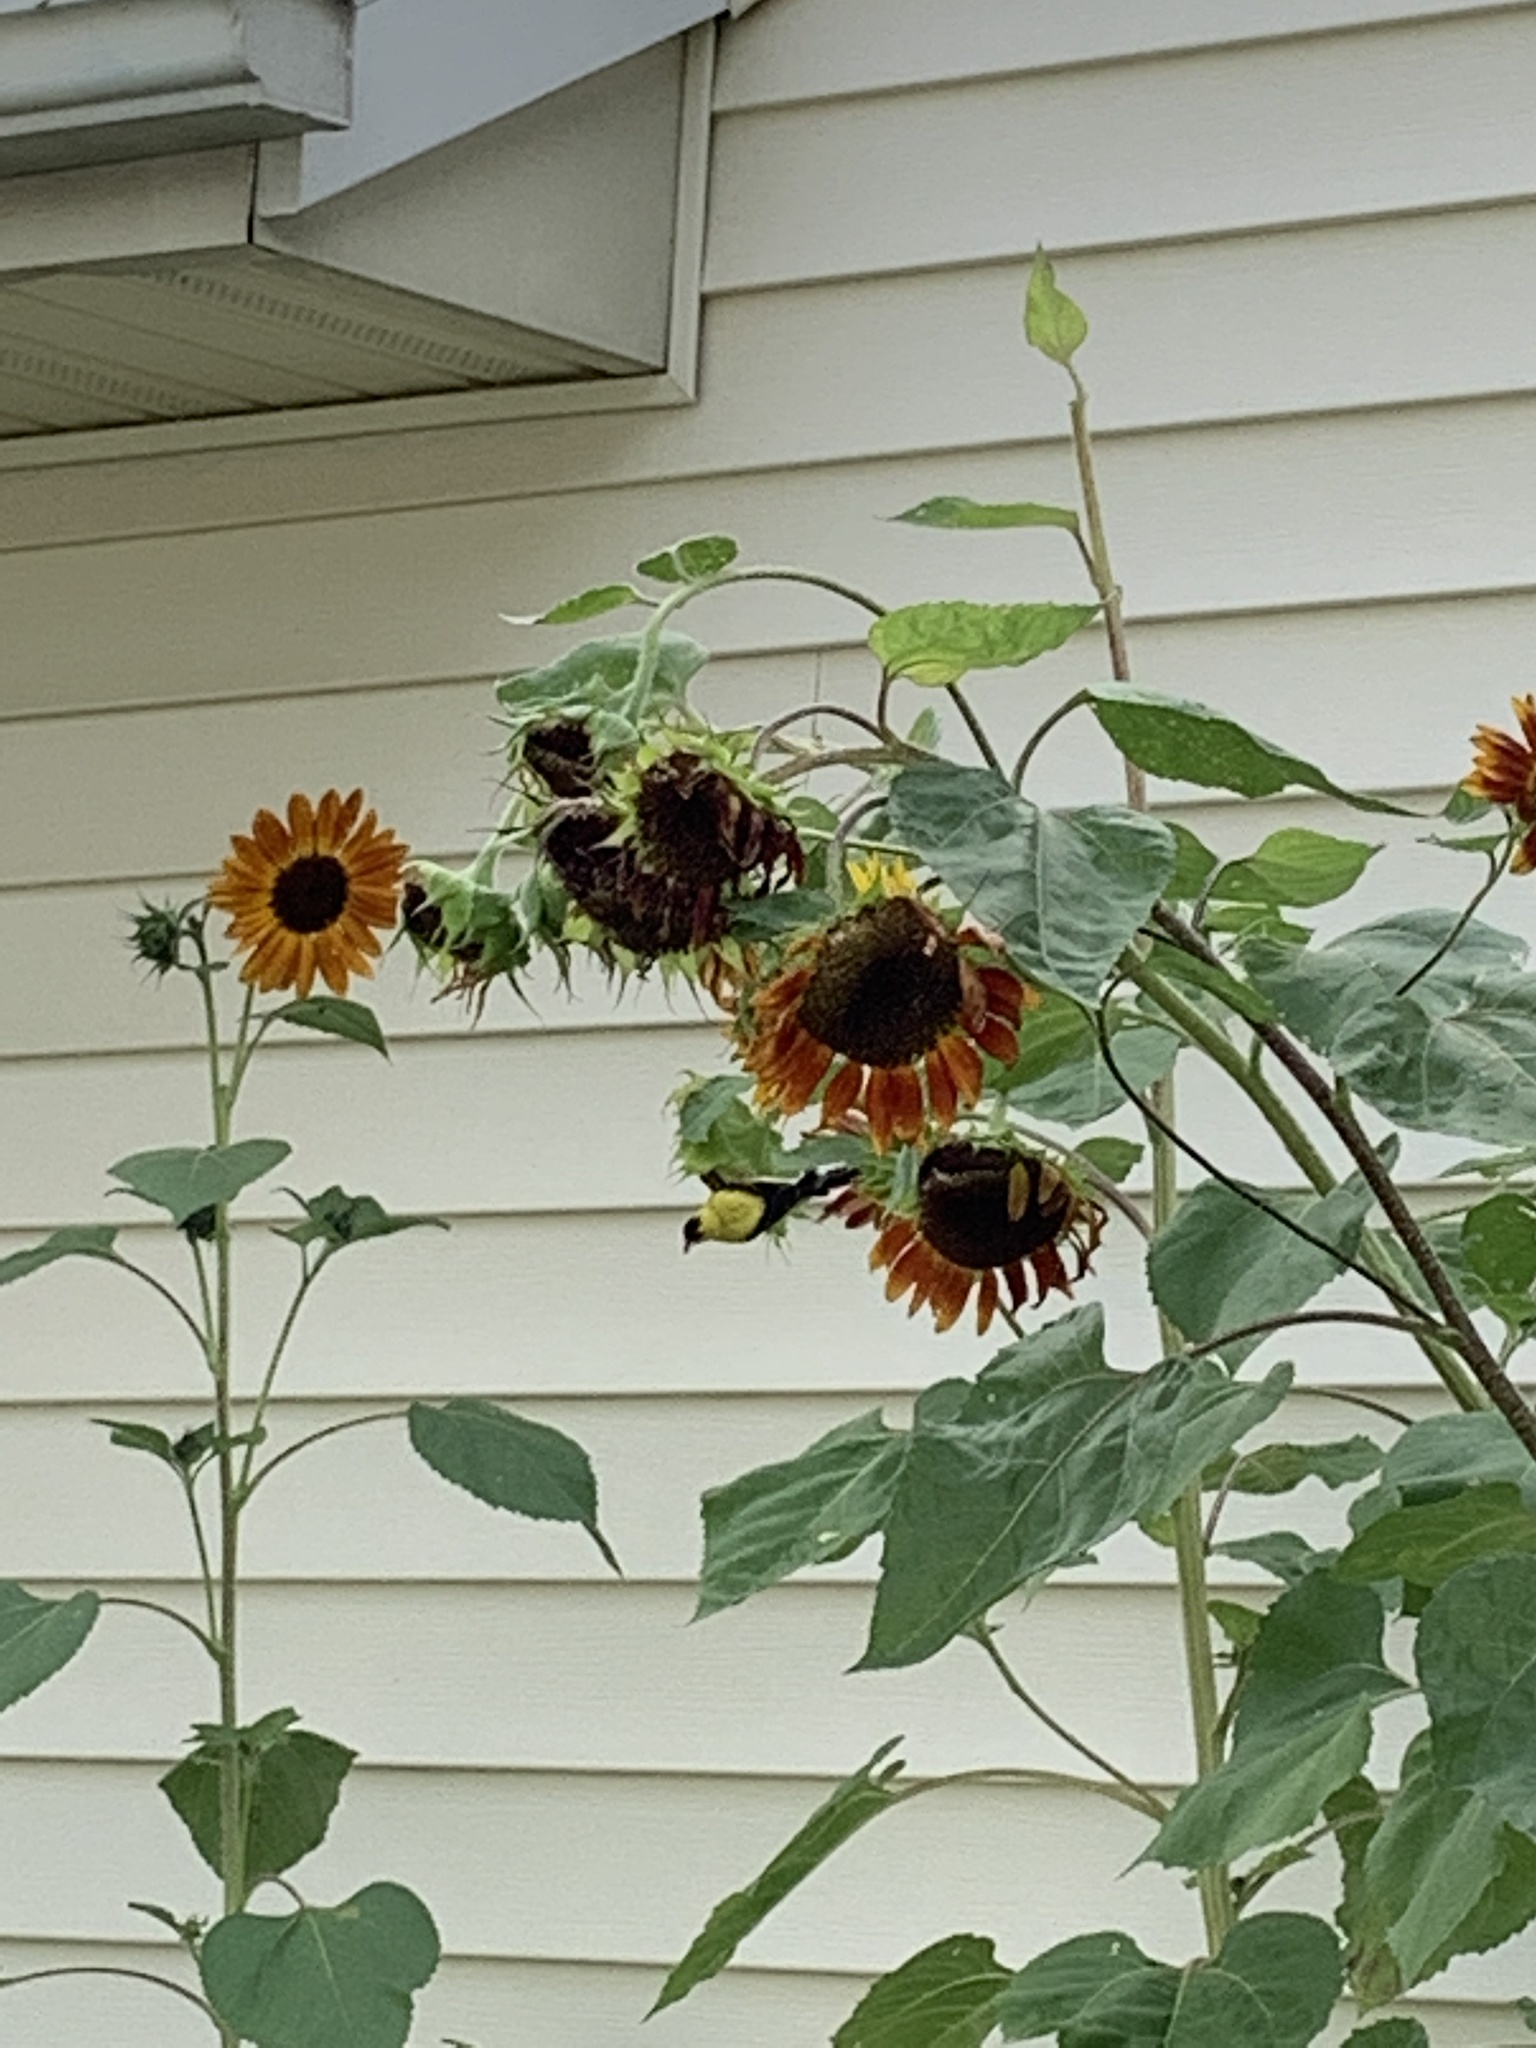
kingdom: Animalia
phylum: Chordata
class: Aves
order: Passeriformes
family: Fringillidae
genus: Spinus
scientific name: Spinus tristis
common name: American goldfinch
